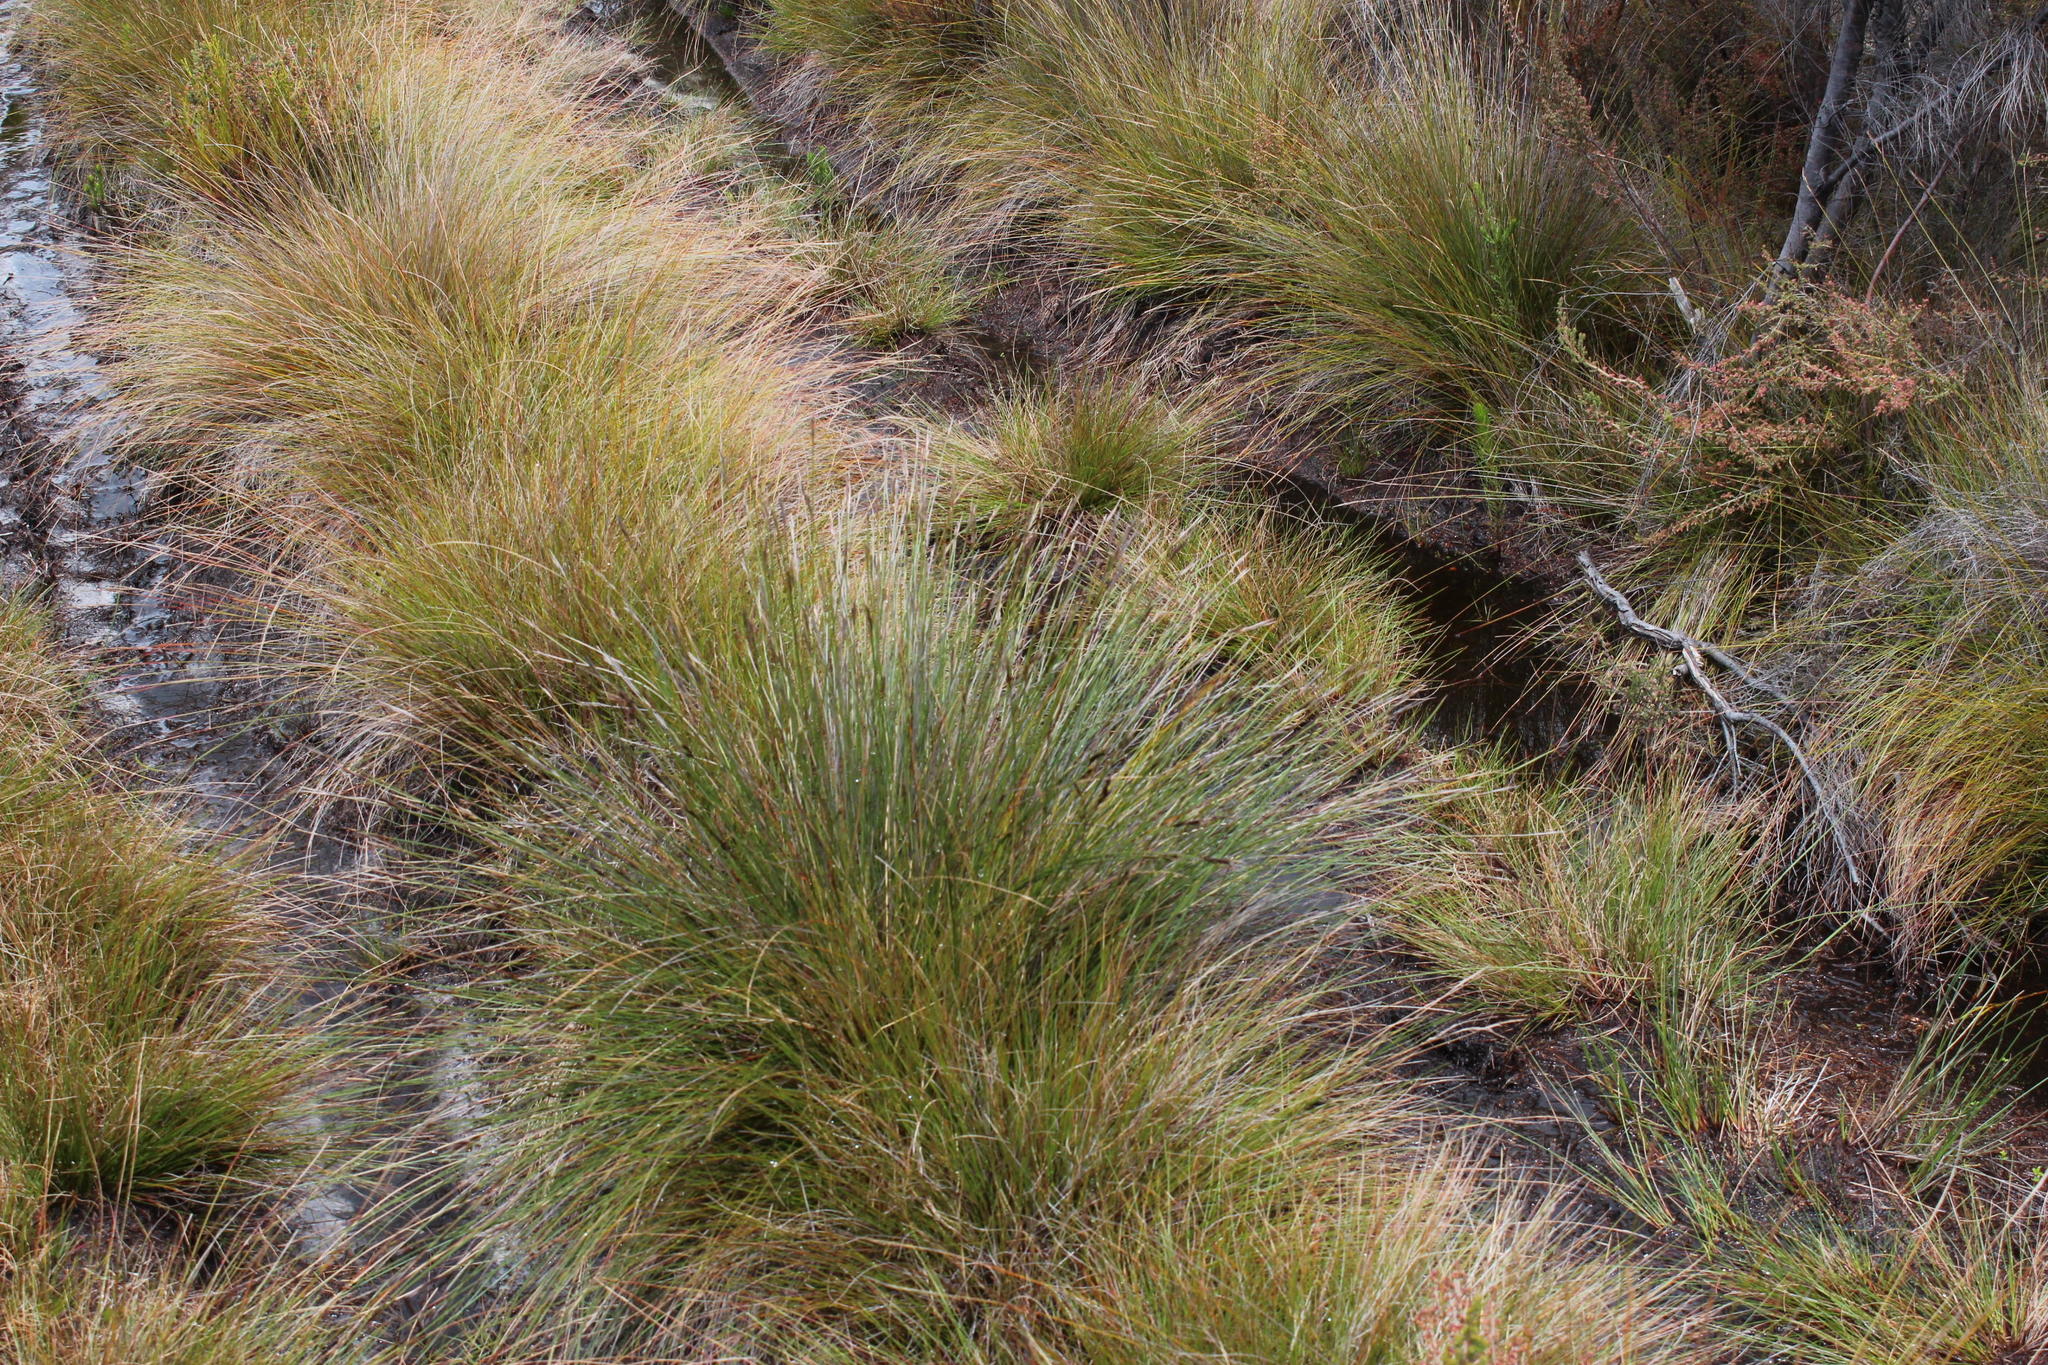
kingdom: Plantae
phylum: Tracheophyta
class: Liliopsida
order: Poales
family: Cyperaceae
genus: Schoenus
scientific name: Schoenus neovillosus
